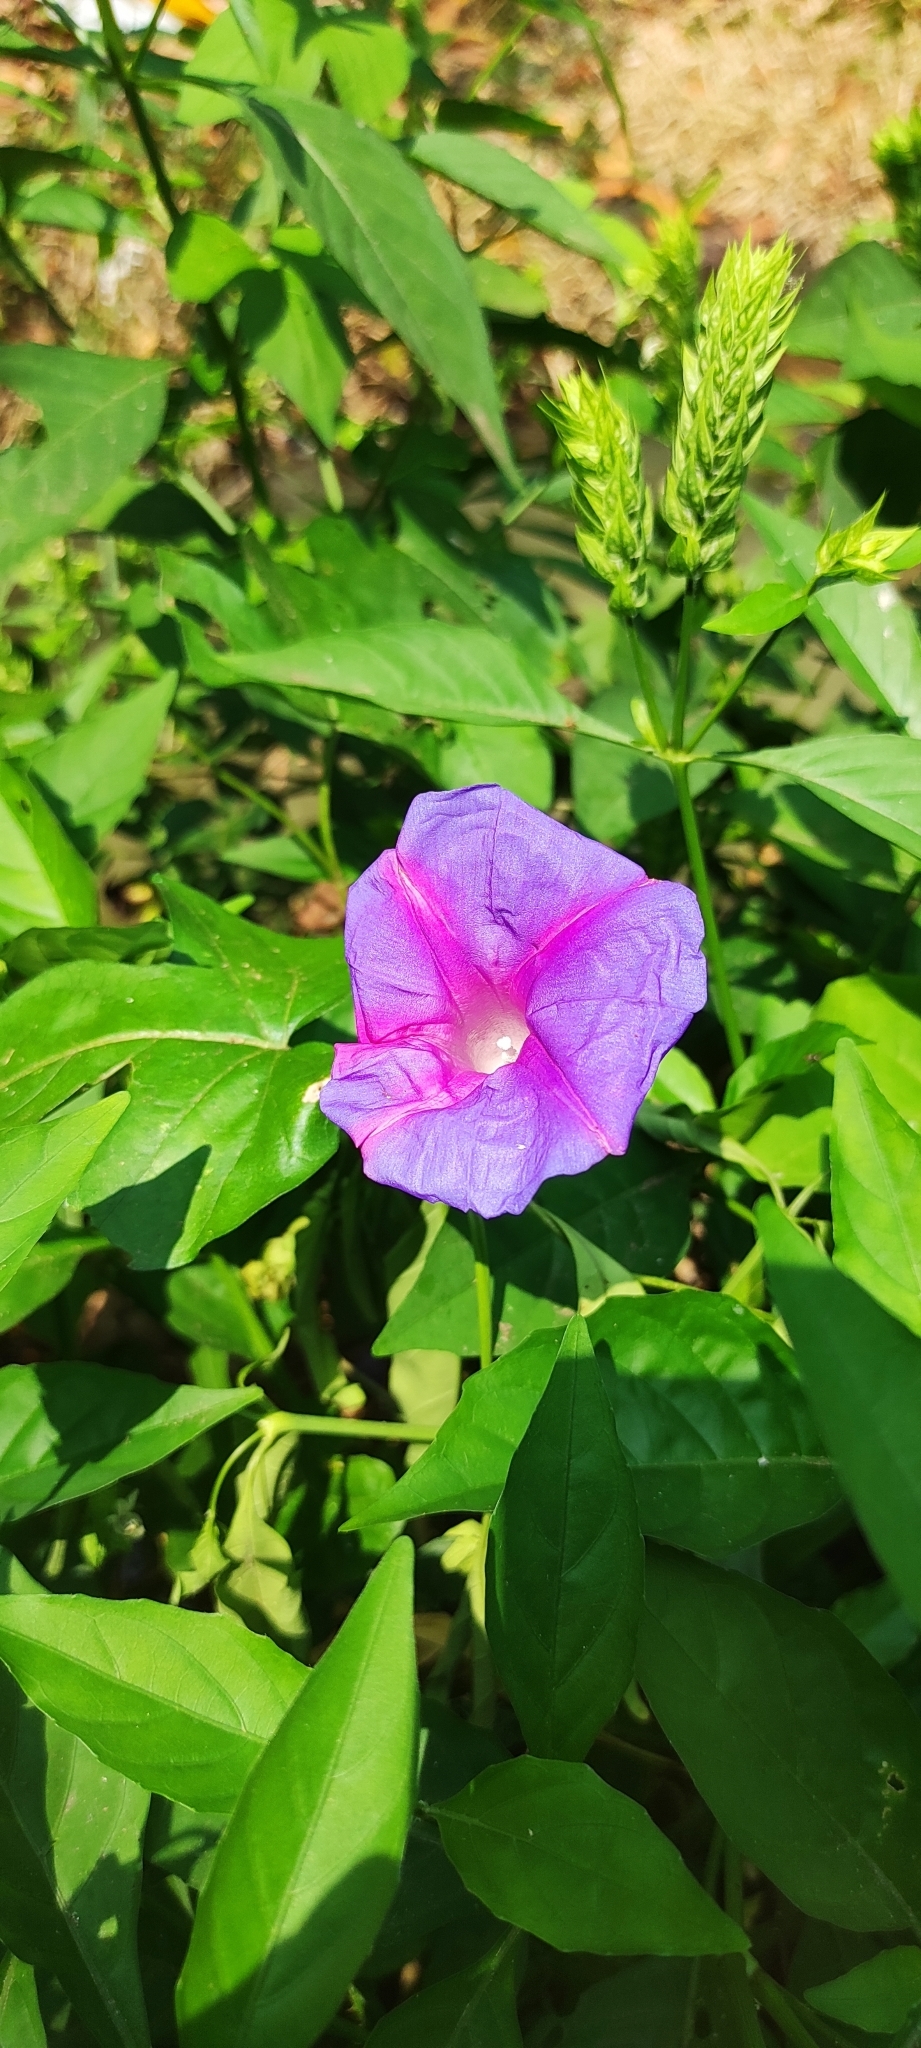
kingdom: Plantae
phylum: Tracheophyta
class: Magnoliopsida
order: Solanales
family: Convolvulaceae
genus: Ipomoea
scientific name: Ipomoea indica
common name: Blue dawnflower
